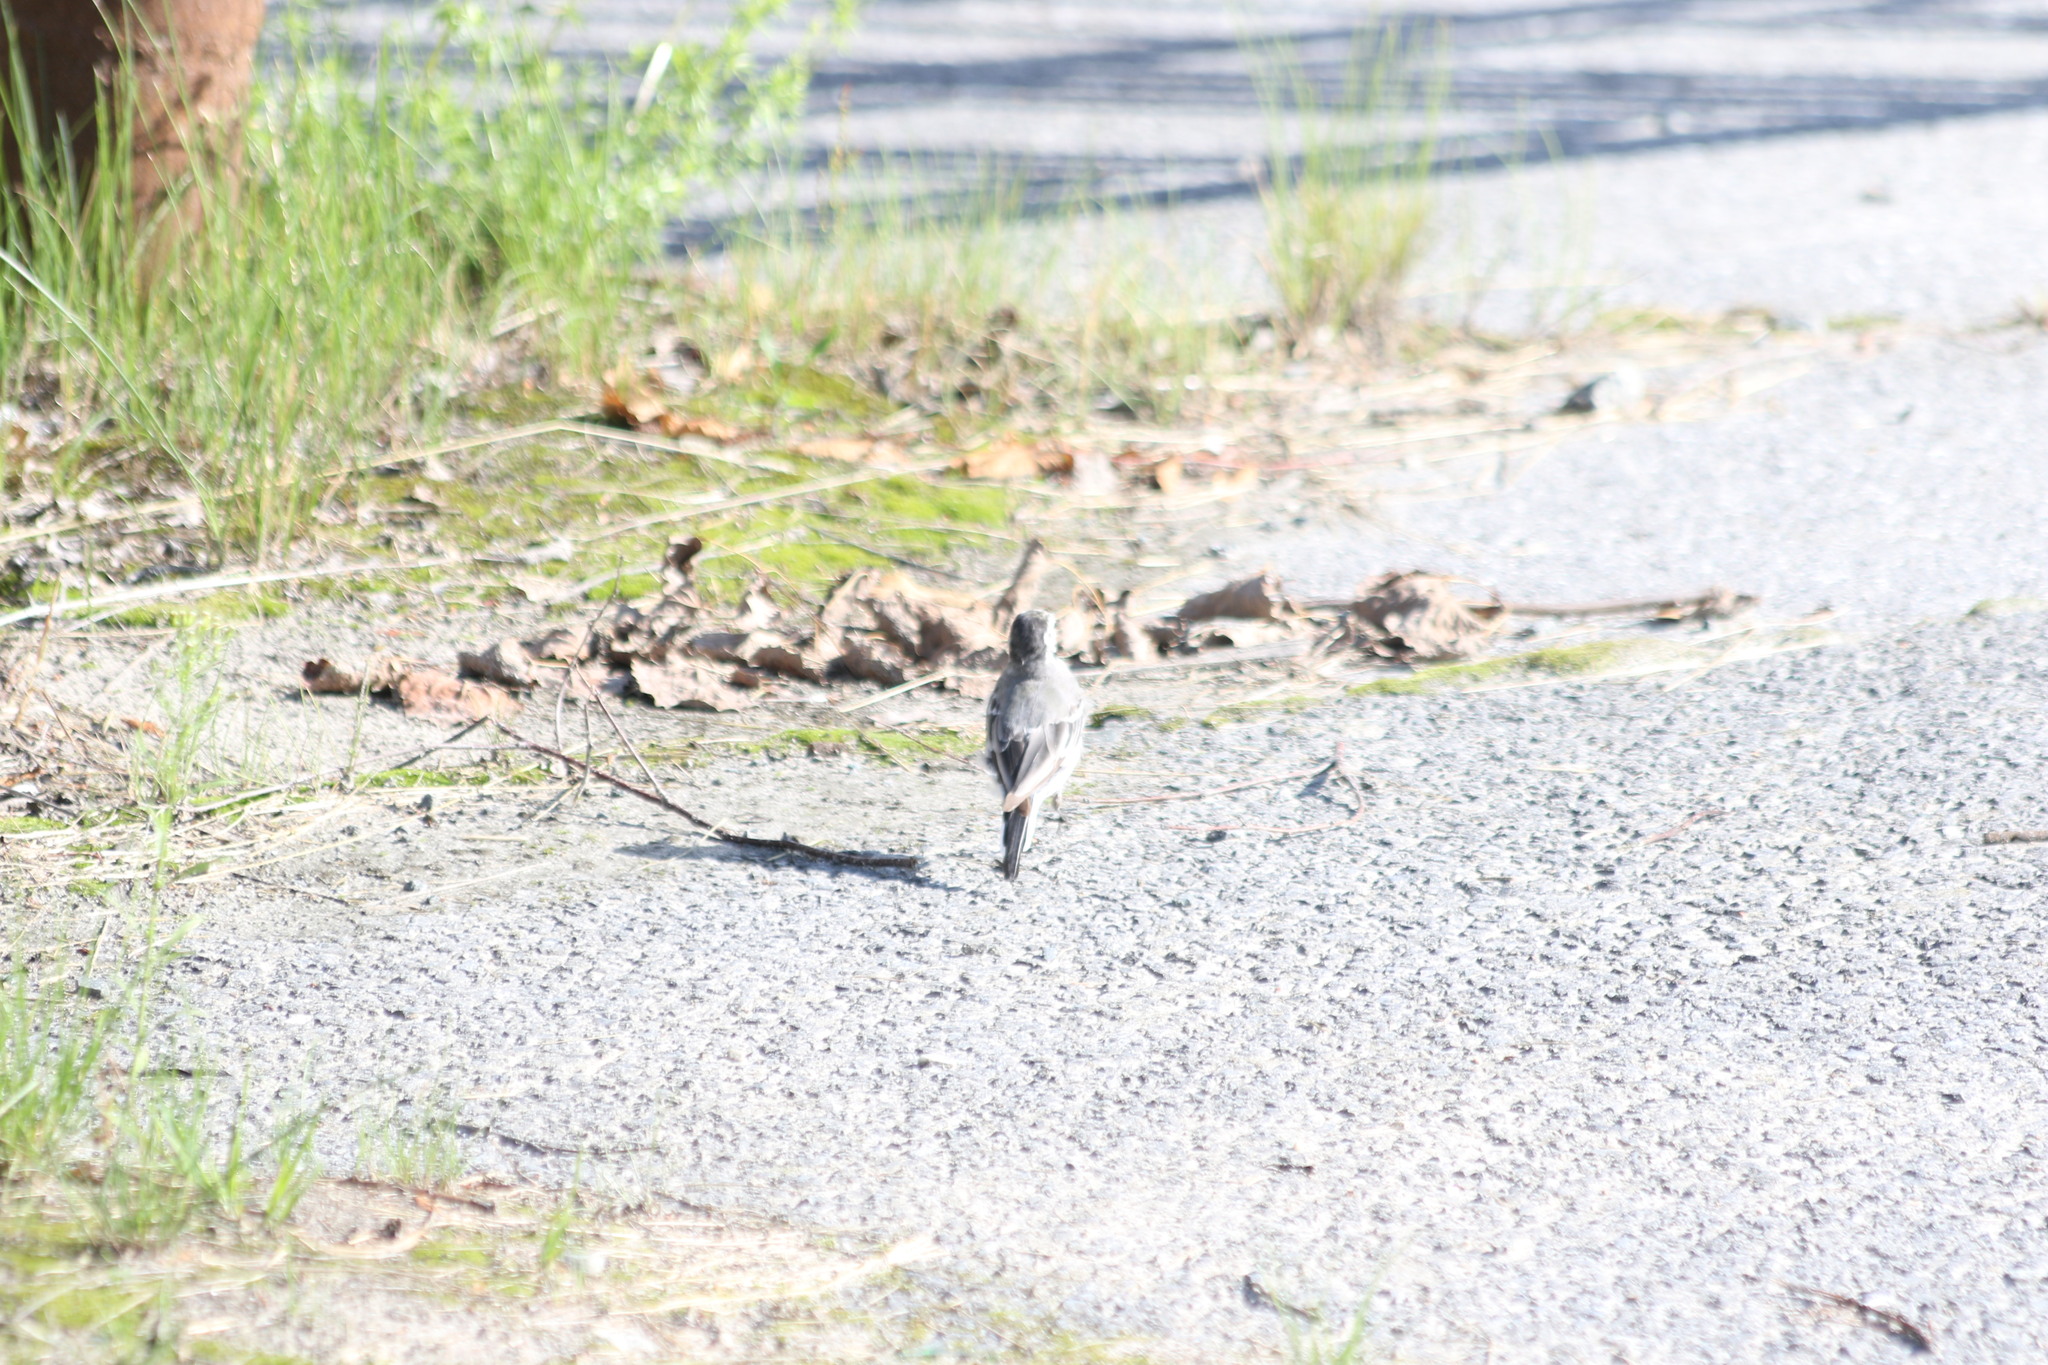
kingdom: Animalia
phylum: Chordata
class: Aves
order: Passeriformes
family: Motacillidae
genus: Motacilla
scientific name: Motacilla alba
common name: White wagtail
